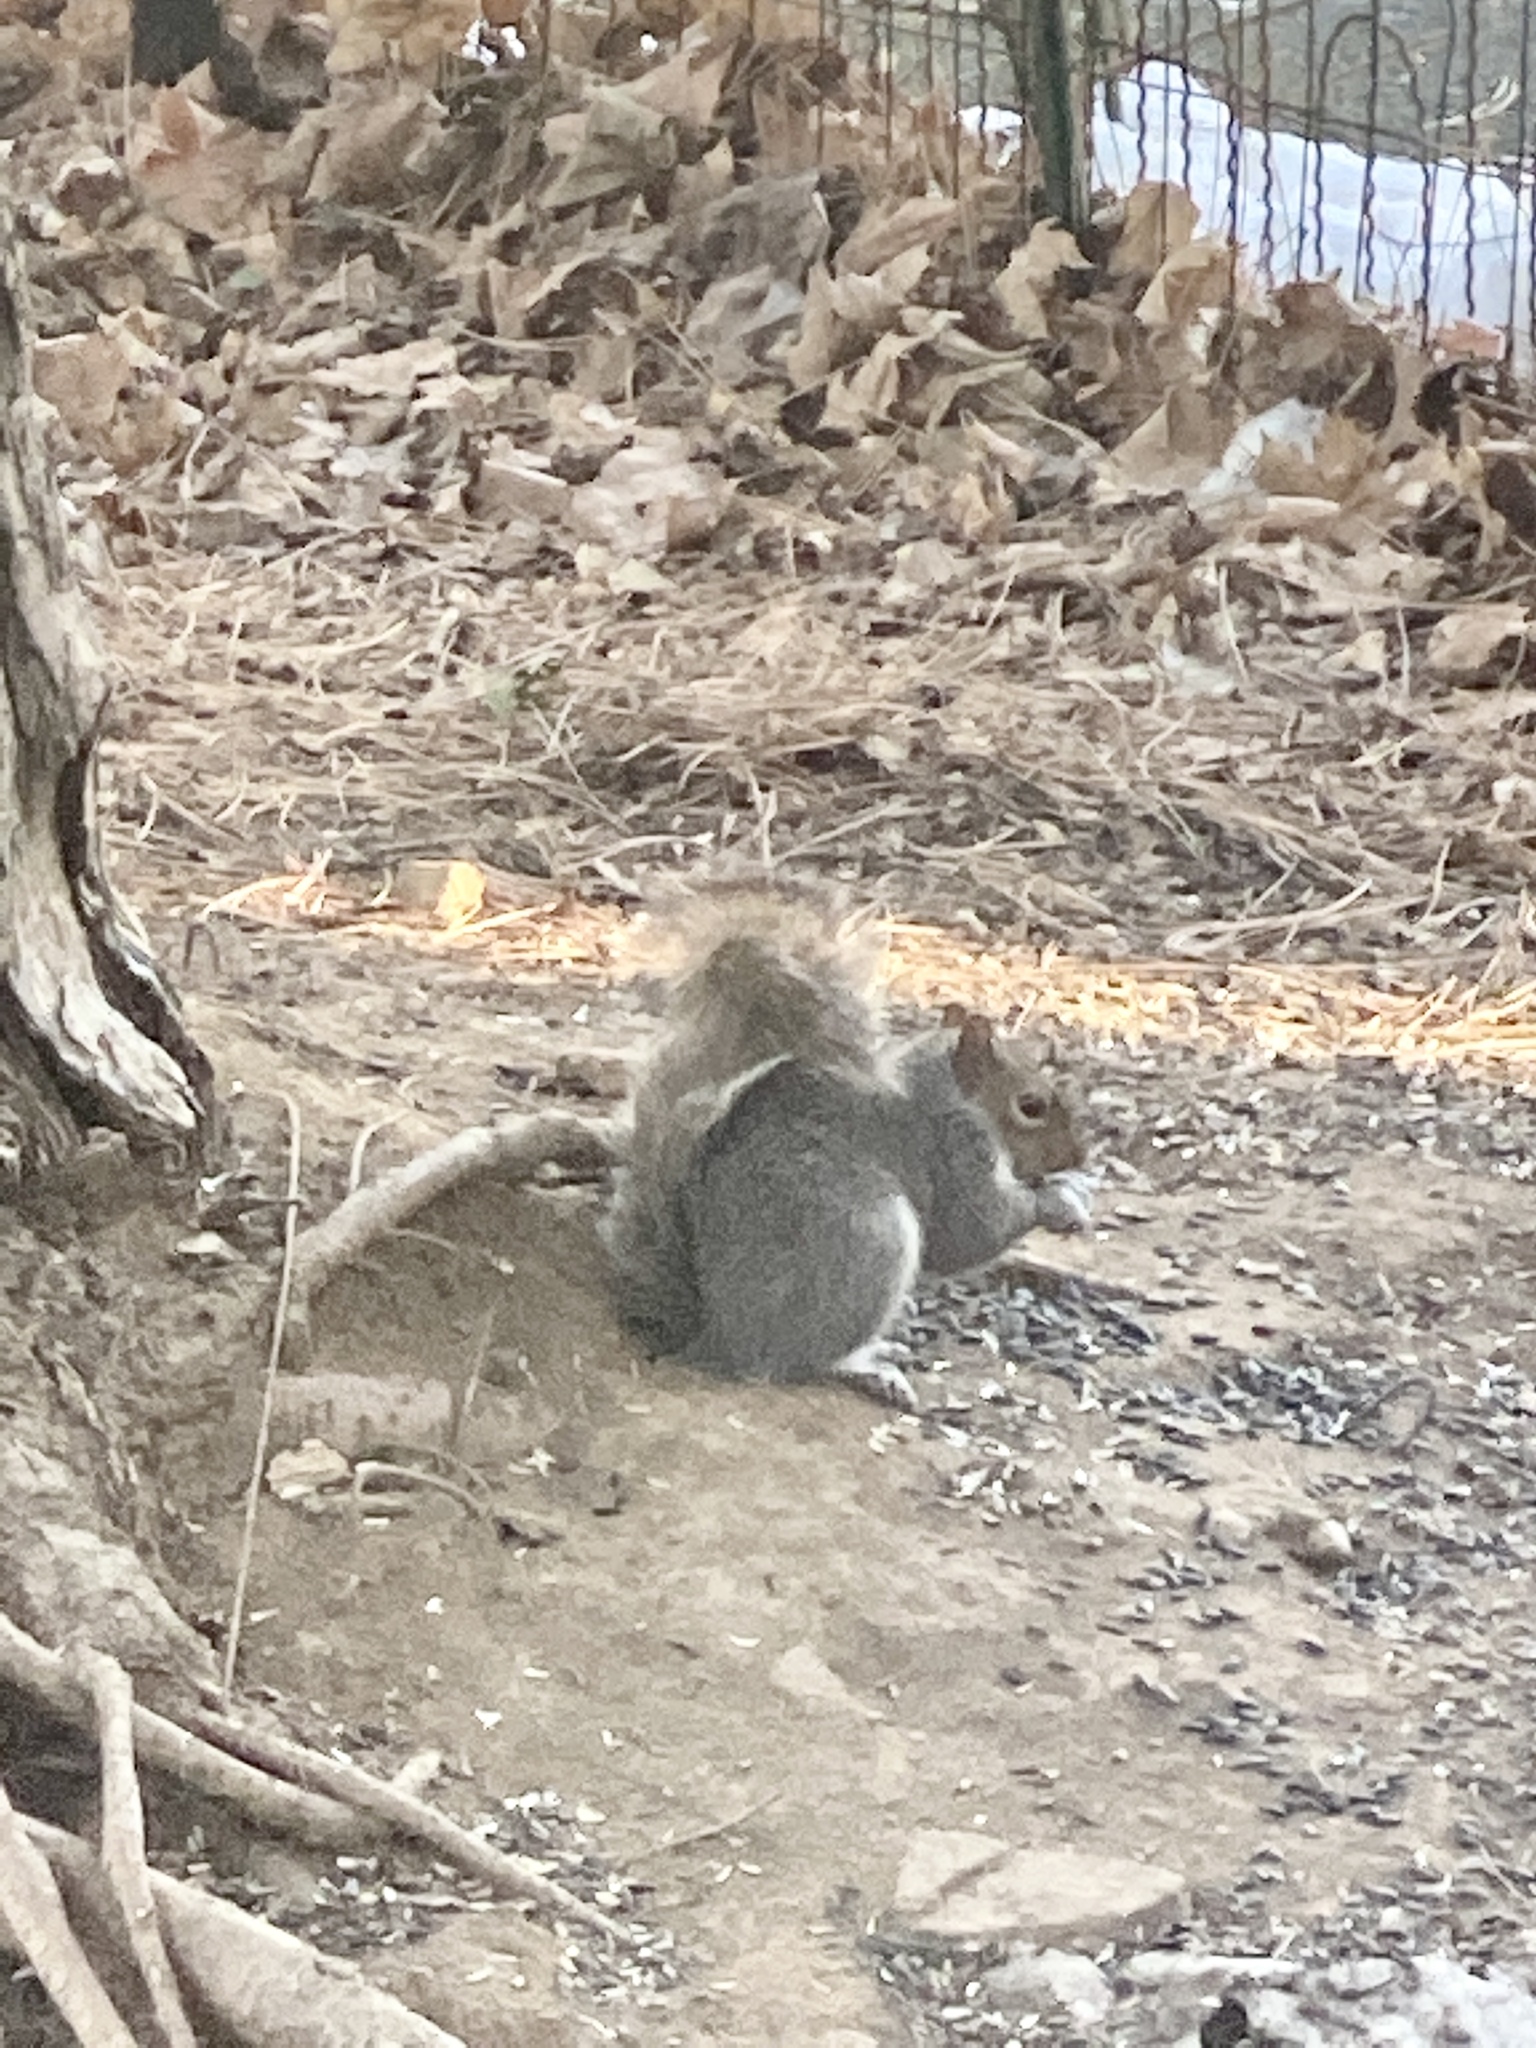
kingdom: Animalia
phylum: Chordata
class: Mammalia
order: Rodentia
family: Sciuridae
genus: Sciurus
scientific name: Sciurus carolinensis
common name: Eastern gray squirrel
